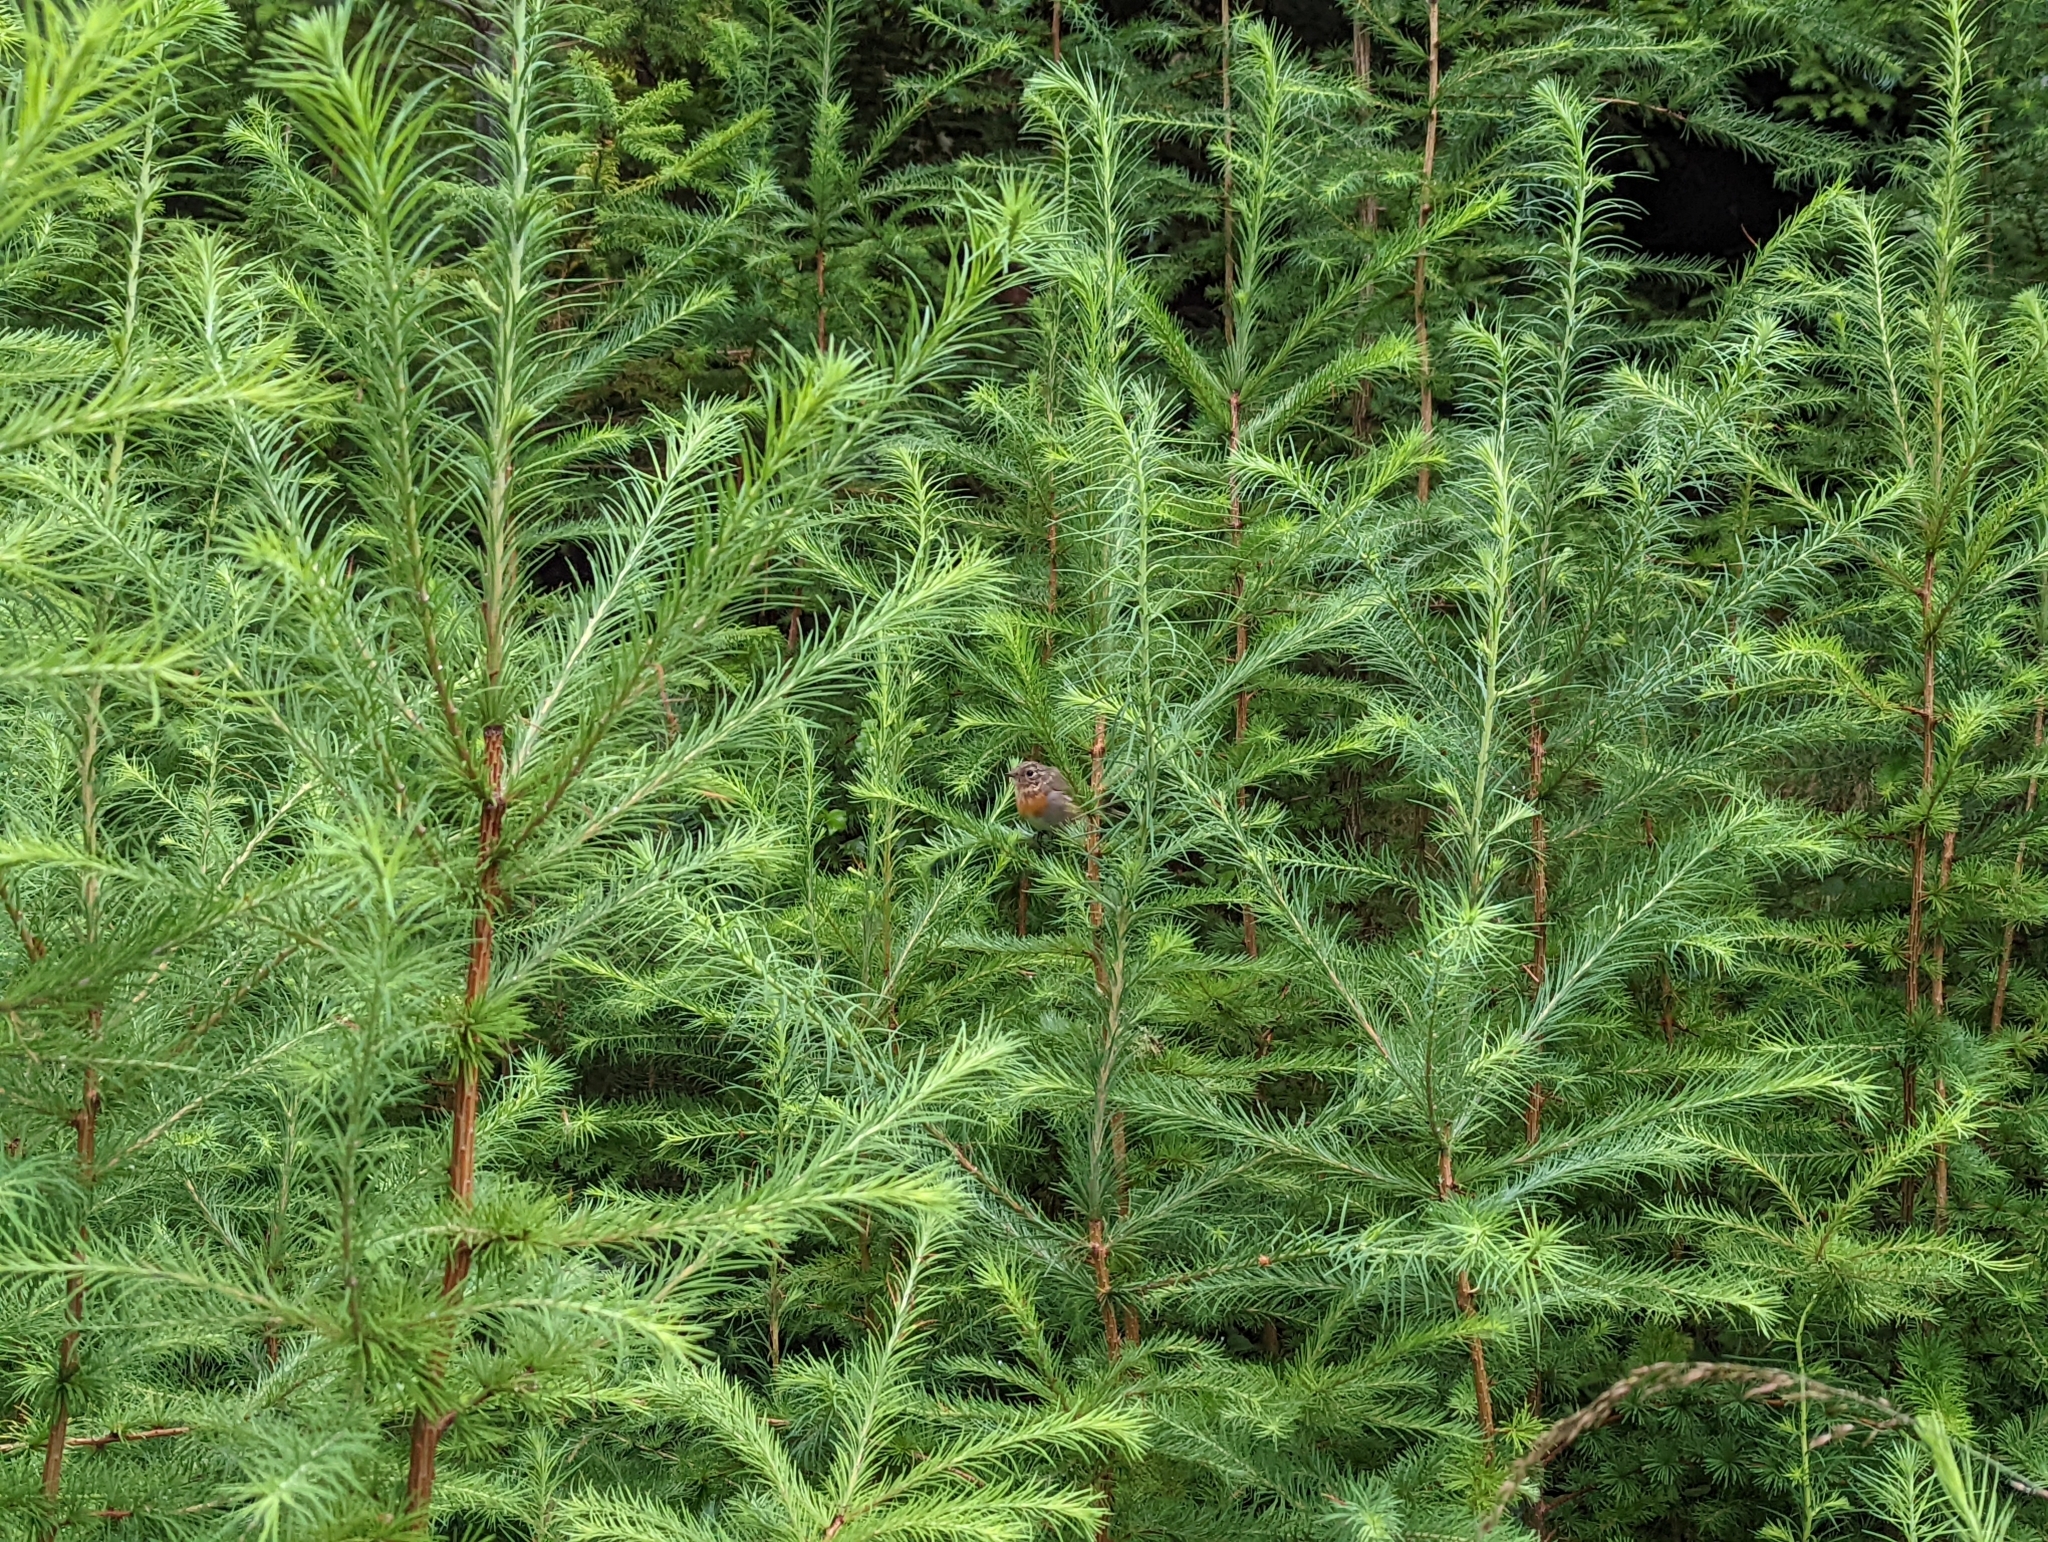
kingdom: Animalia
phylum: Chordata
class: Aves
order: Passeriformes
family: Muscicapidae
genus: Erithacus
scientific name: Erithacus rubecula
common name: European robin
